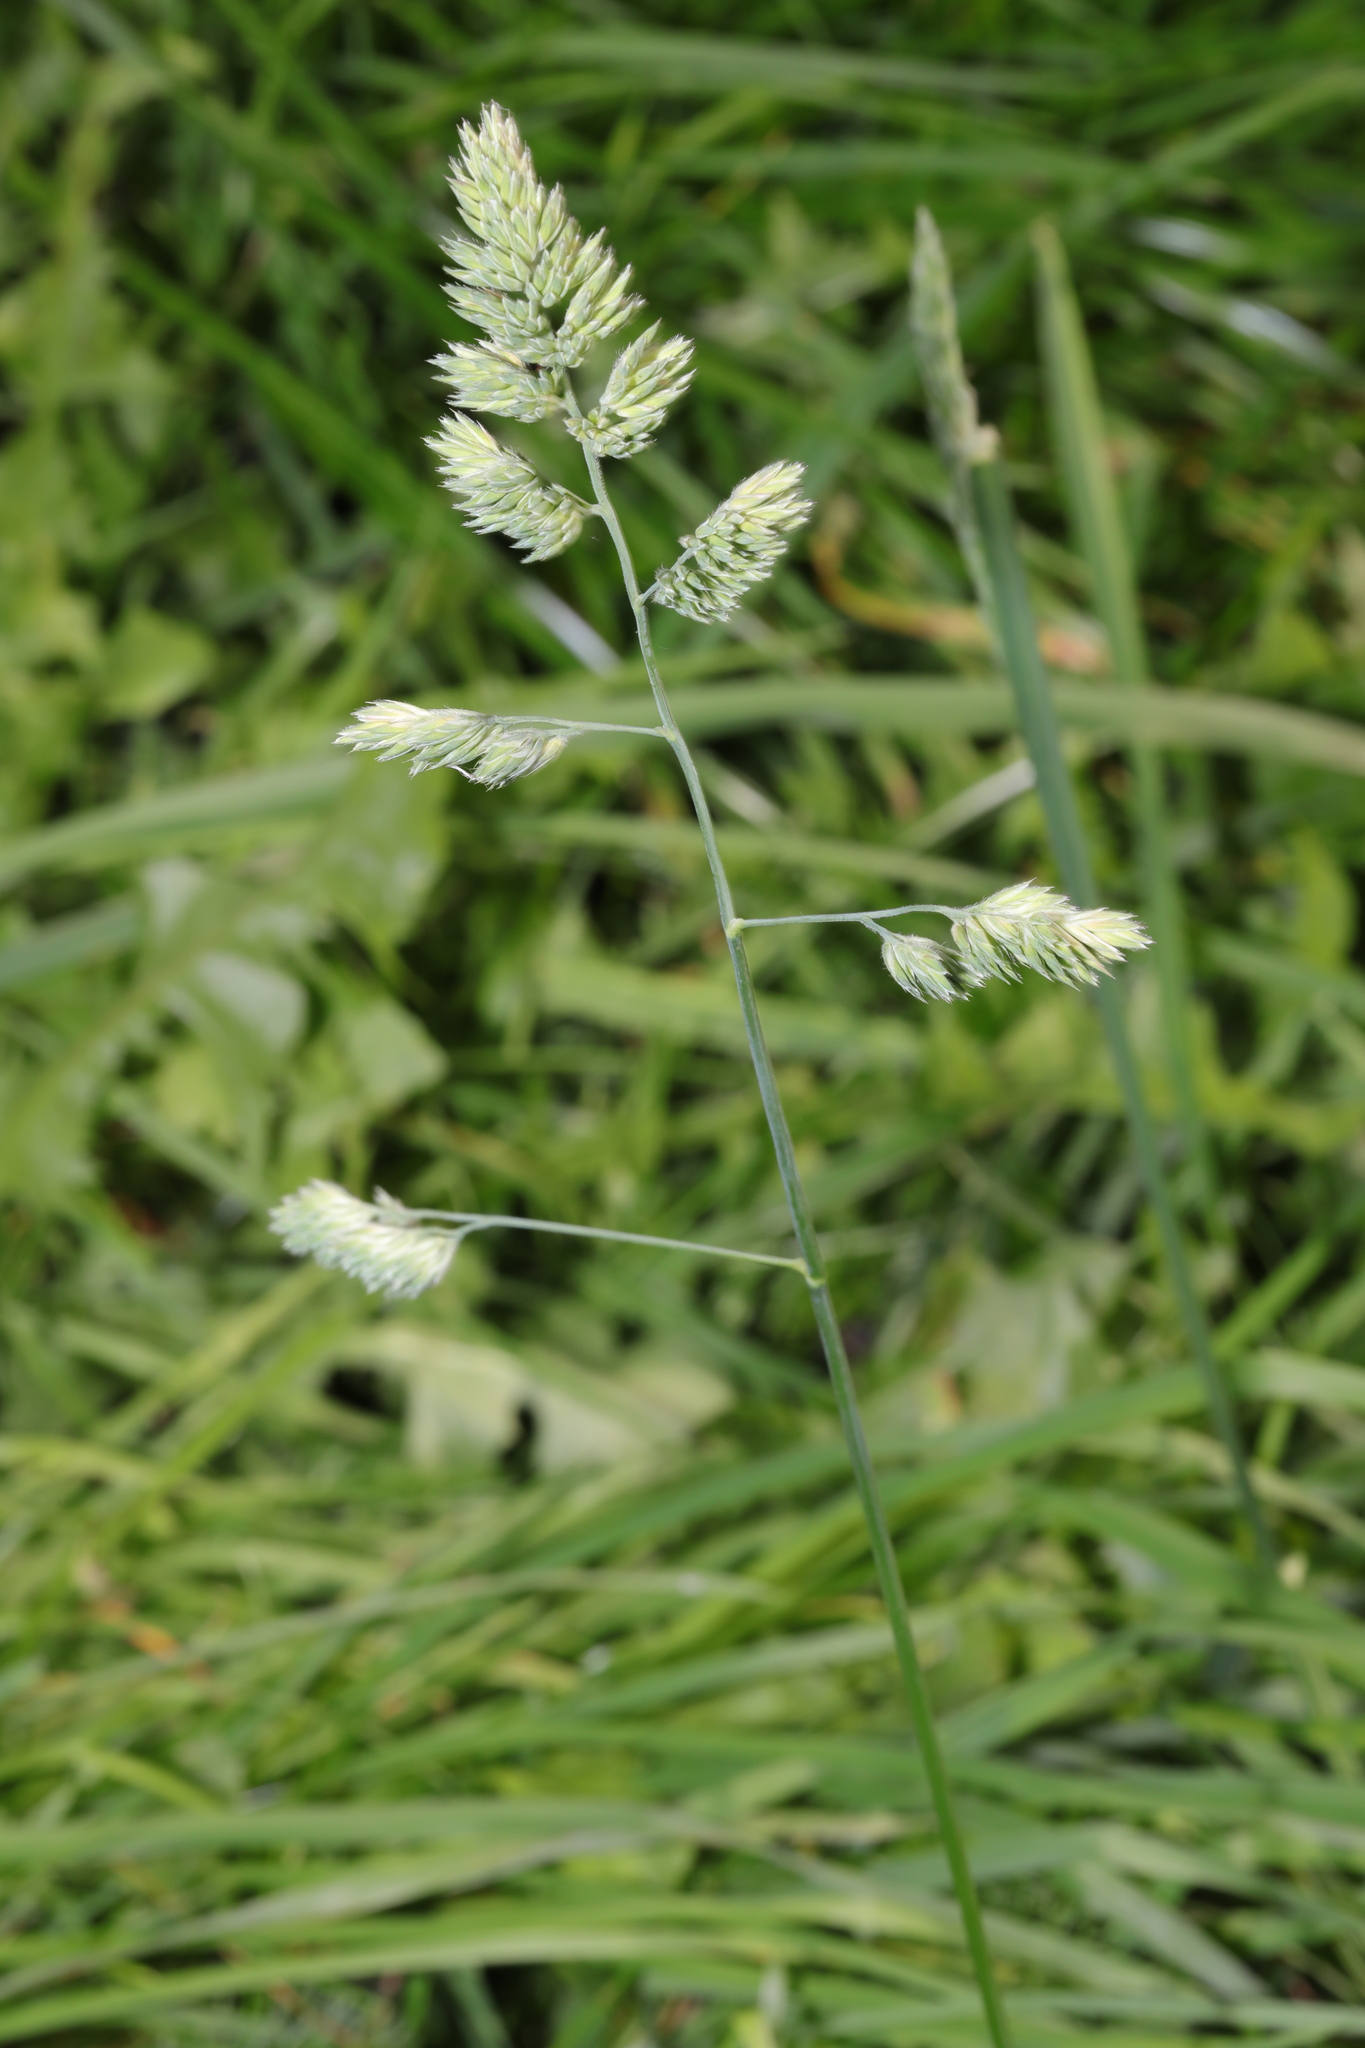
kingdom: Plantae
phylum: Tracheophyta
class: Liliopsida
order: Poales
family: Poaceae
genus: Dactylis
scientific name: Dactylis glomerata
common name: Orchardgrass
